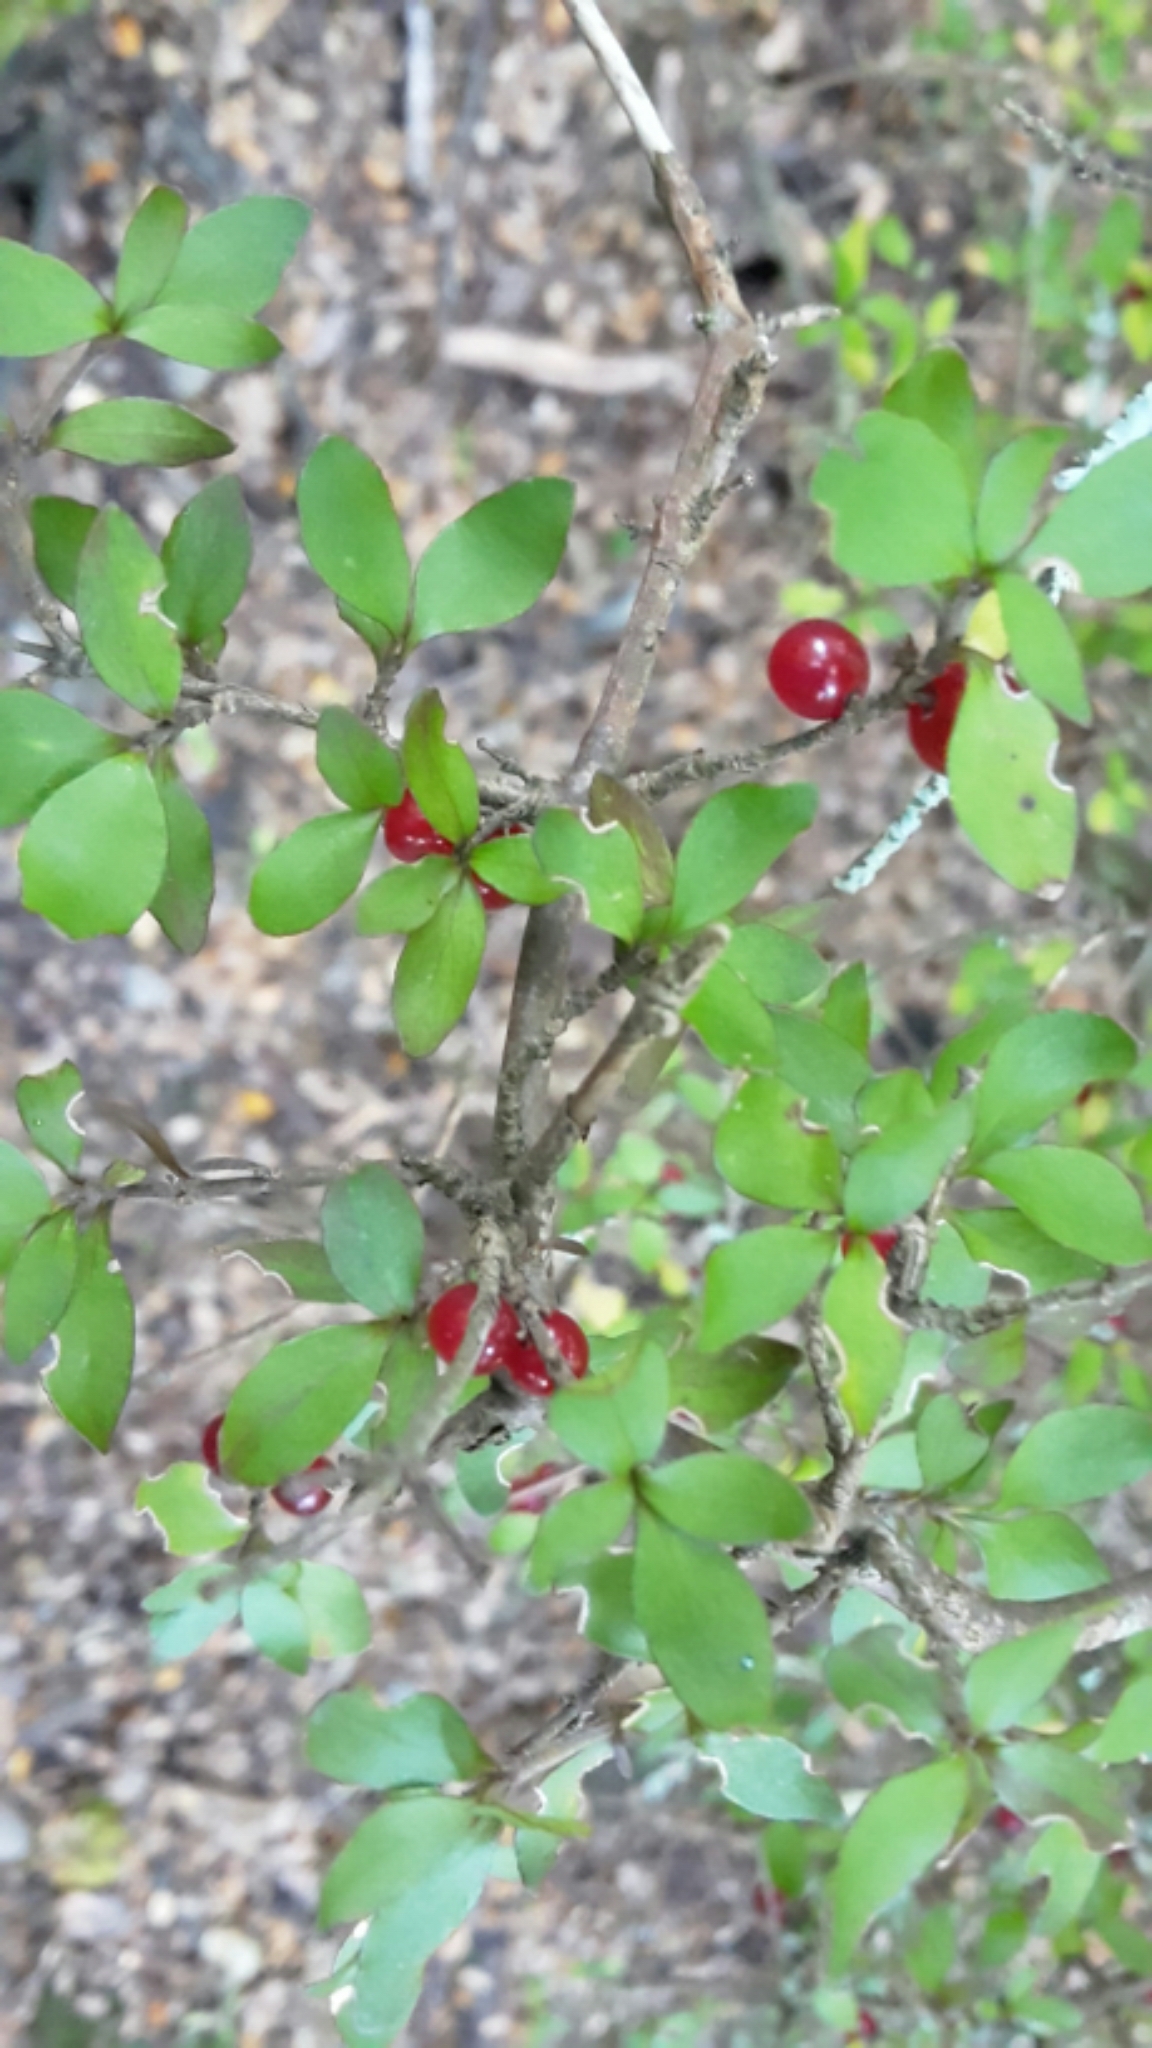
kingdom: Plantae
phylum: Tracheophyta
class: Magnoliopsida
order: Gentianales
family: Rubiaceae
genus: Coprosma
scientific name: Coprosma rhamnoides
